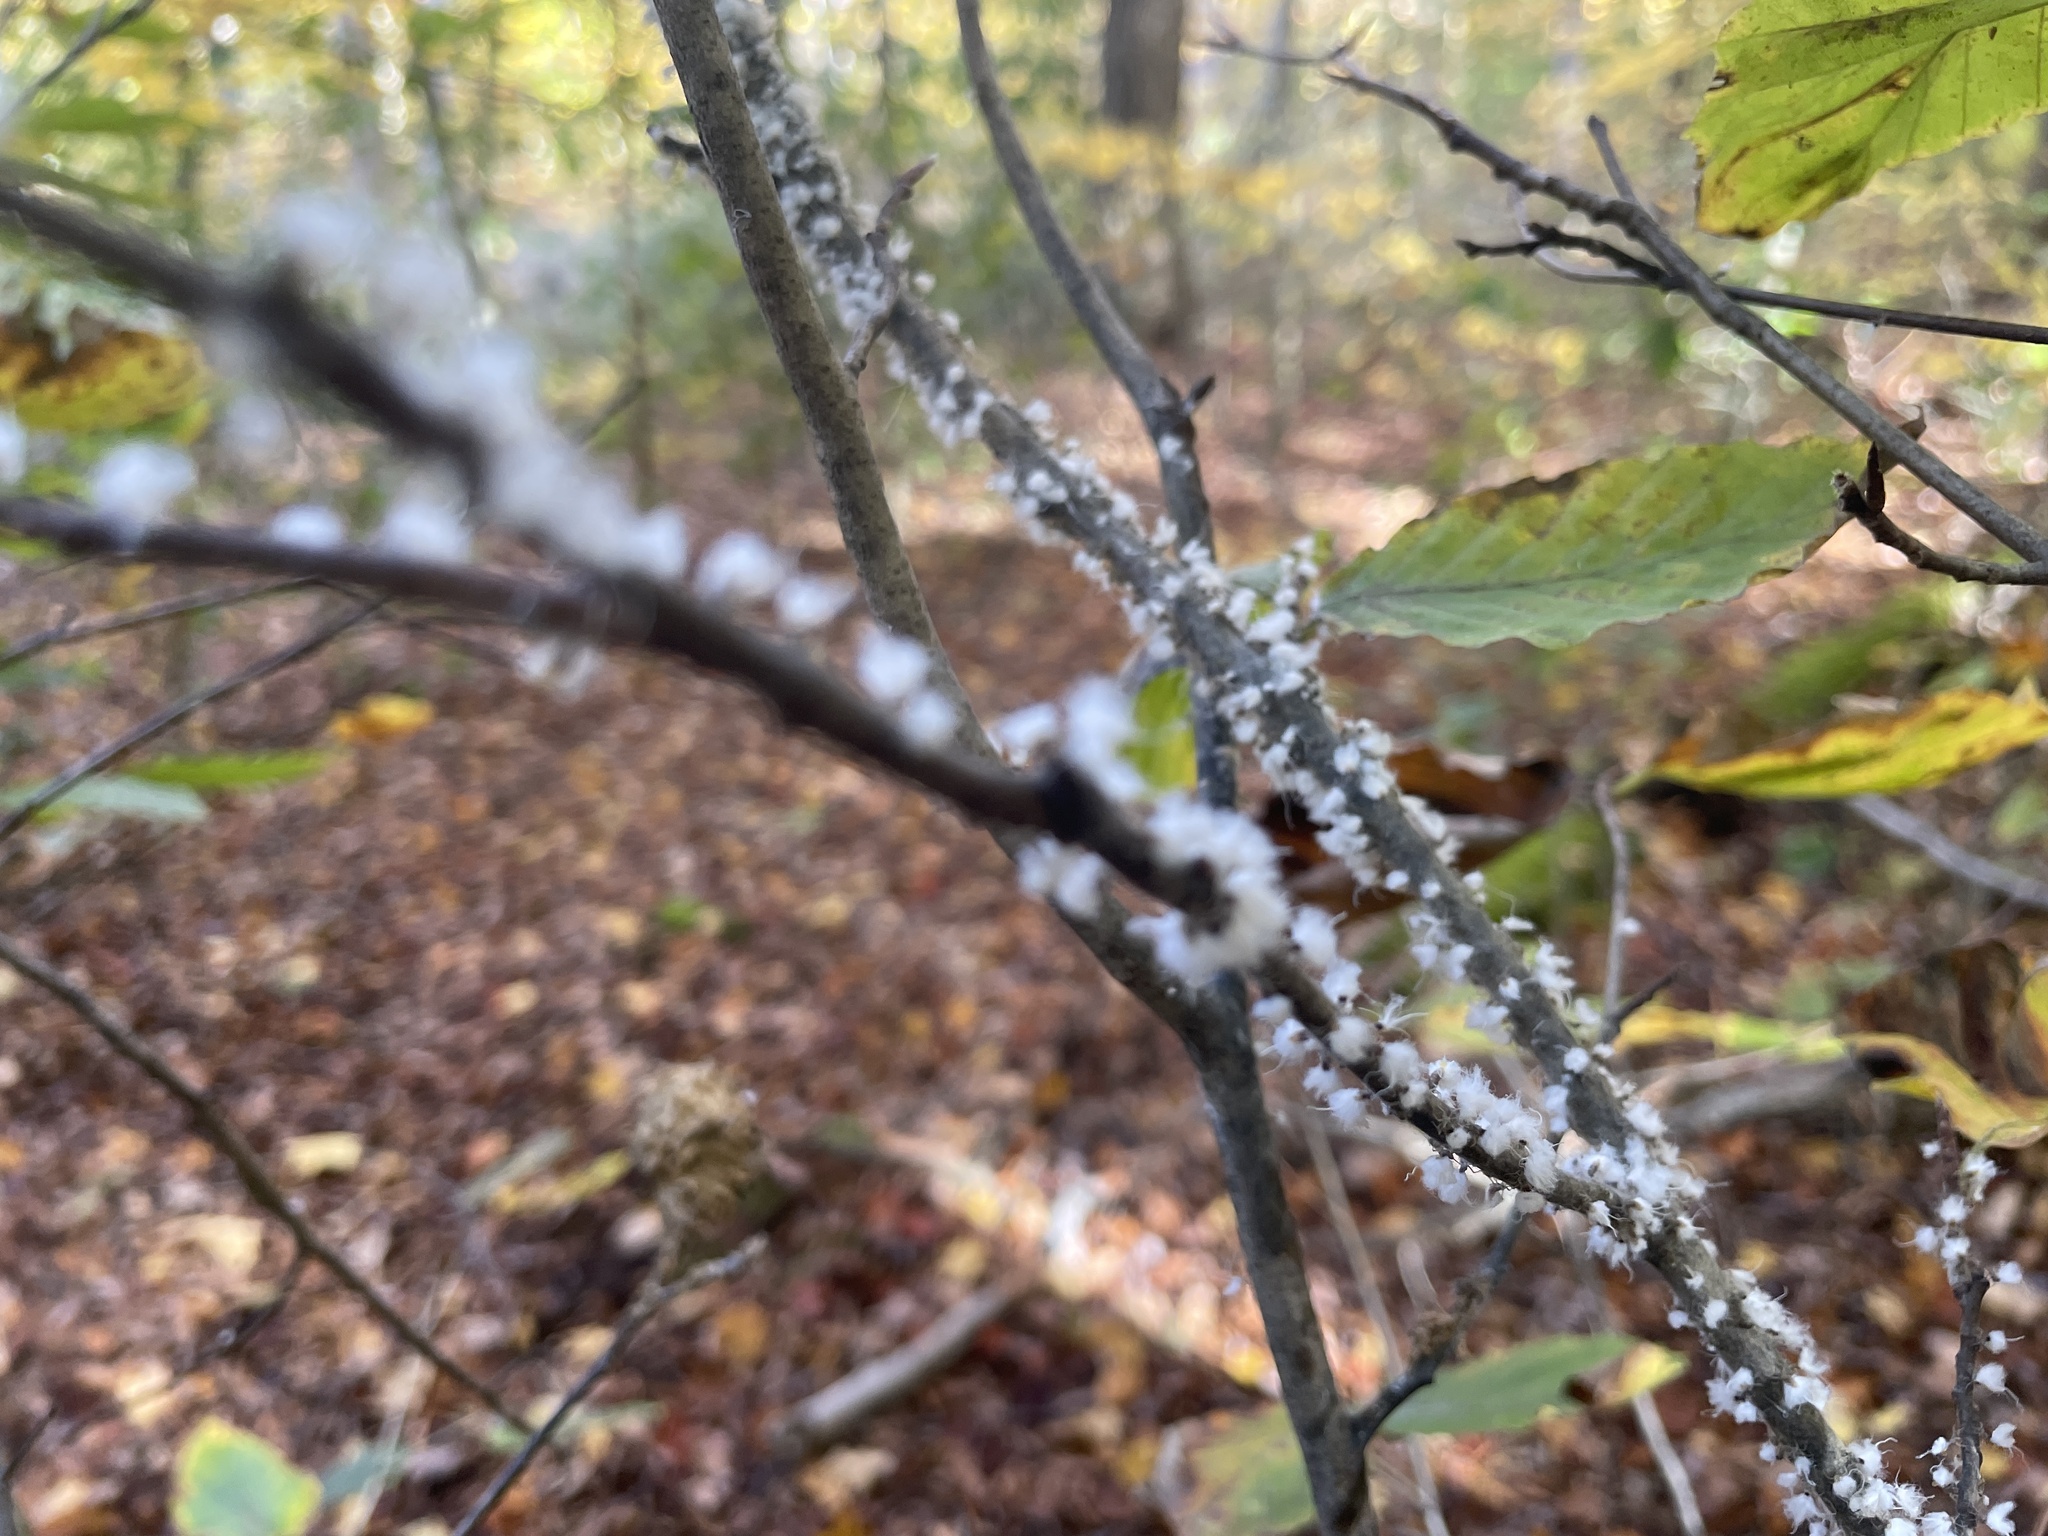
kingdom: Animalia
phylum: Arthropoda
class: Insecta
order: Hemiptera
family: Aphididae
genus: Grylloprociphilus
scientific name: Grylloprociphilus imbricator
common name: Beech blight aphid
